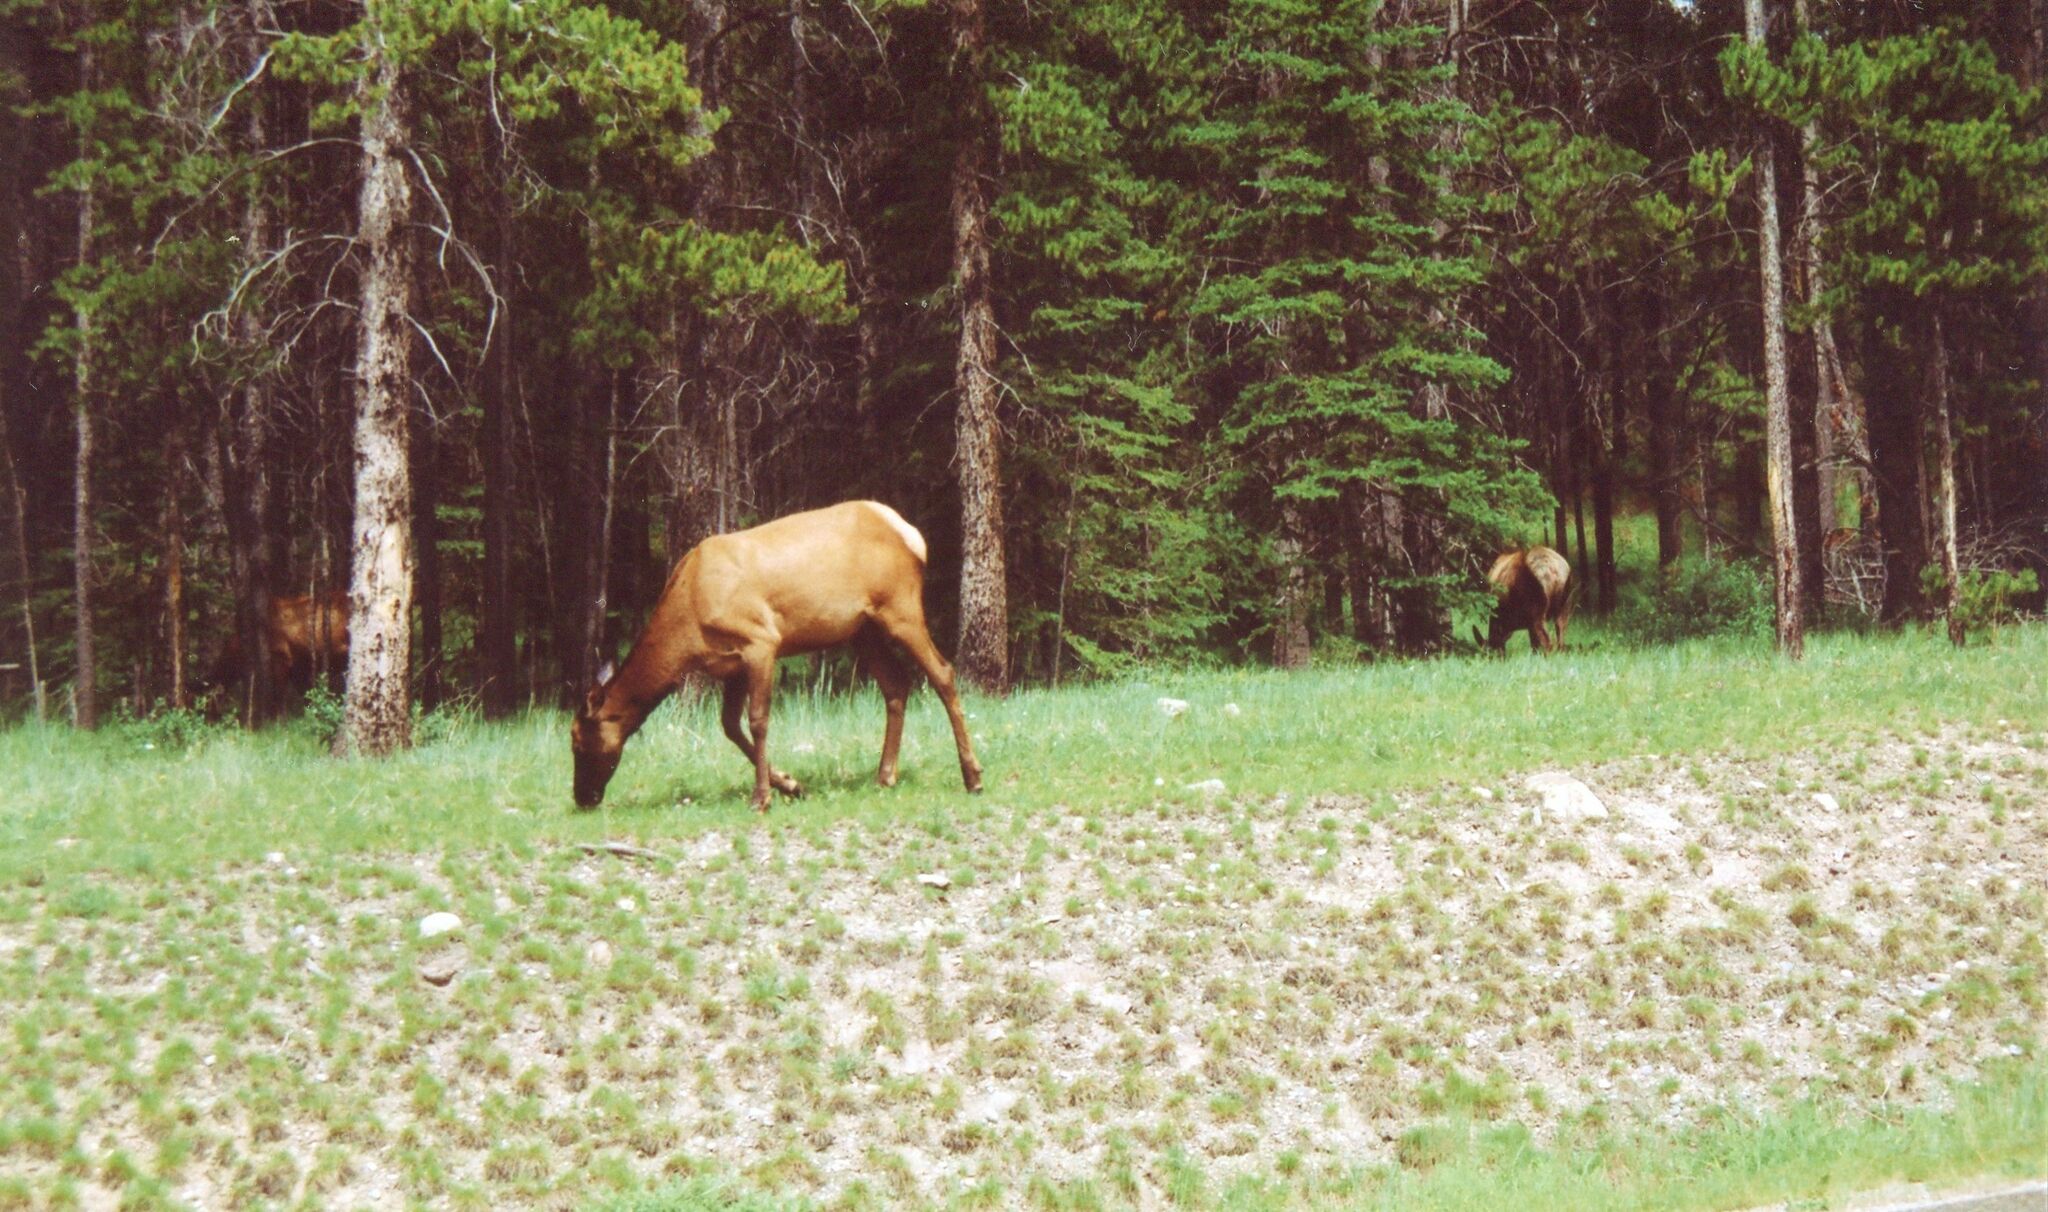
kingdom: Animalia
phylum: Chordata
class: Mammalia
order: Artiodactyla
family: Cervidae
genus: Cervus
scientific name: Cervus elaphus
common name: Red deer
